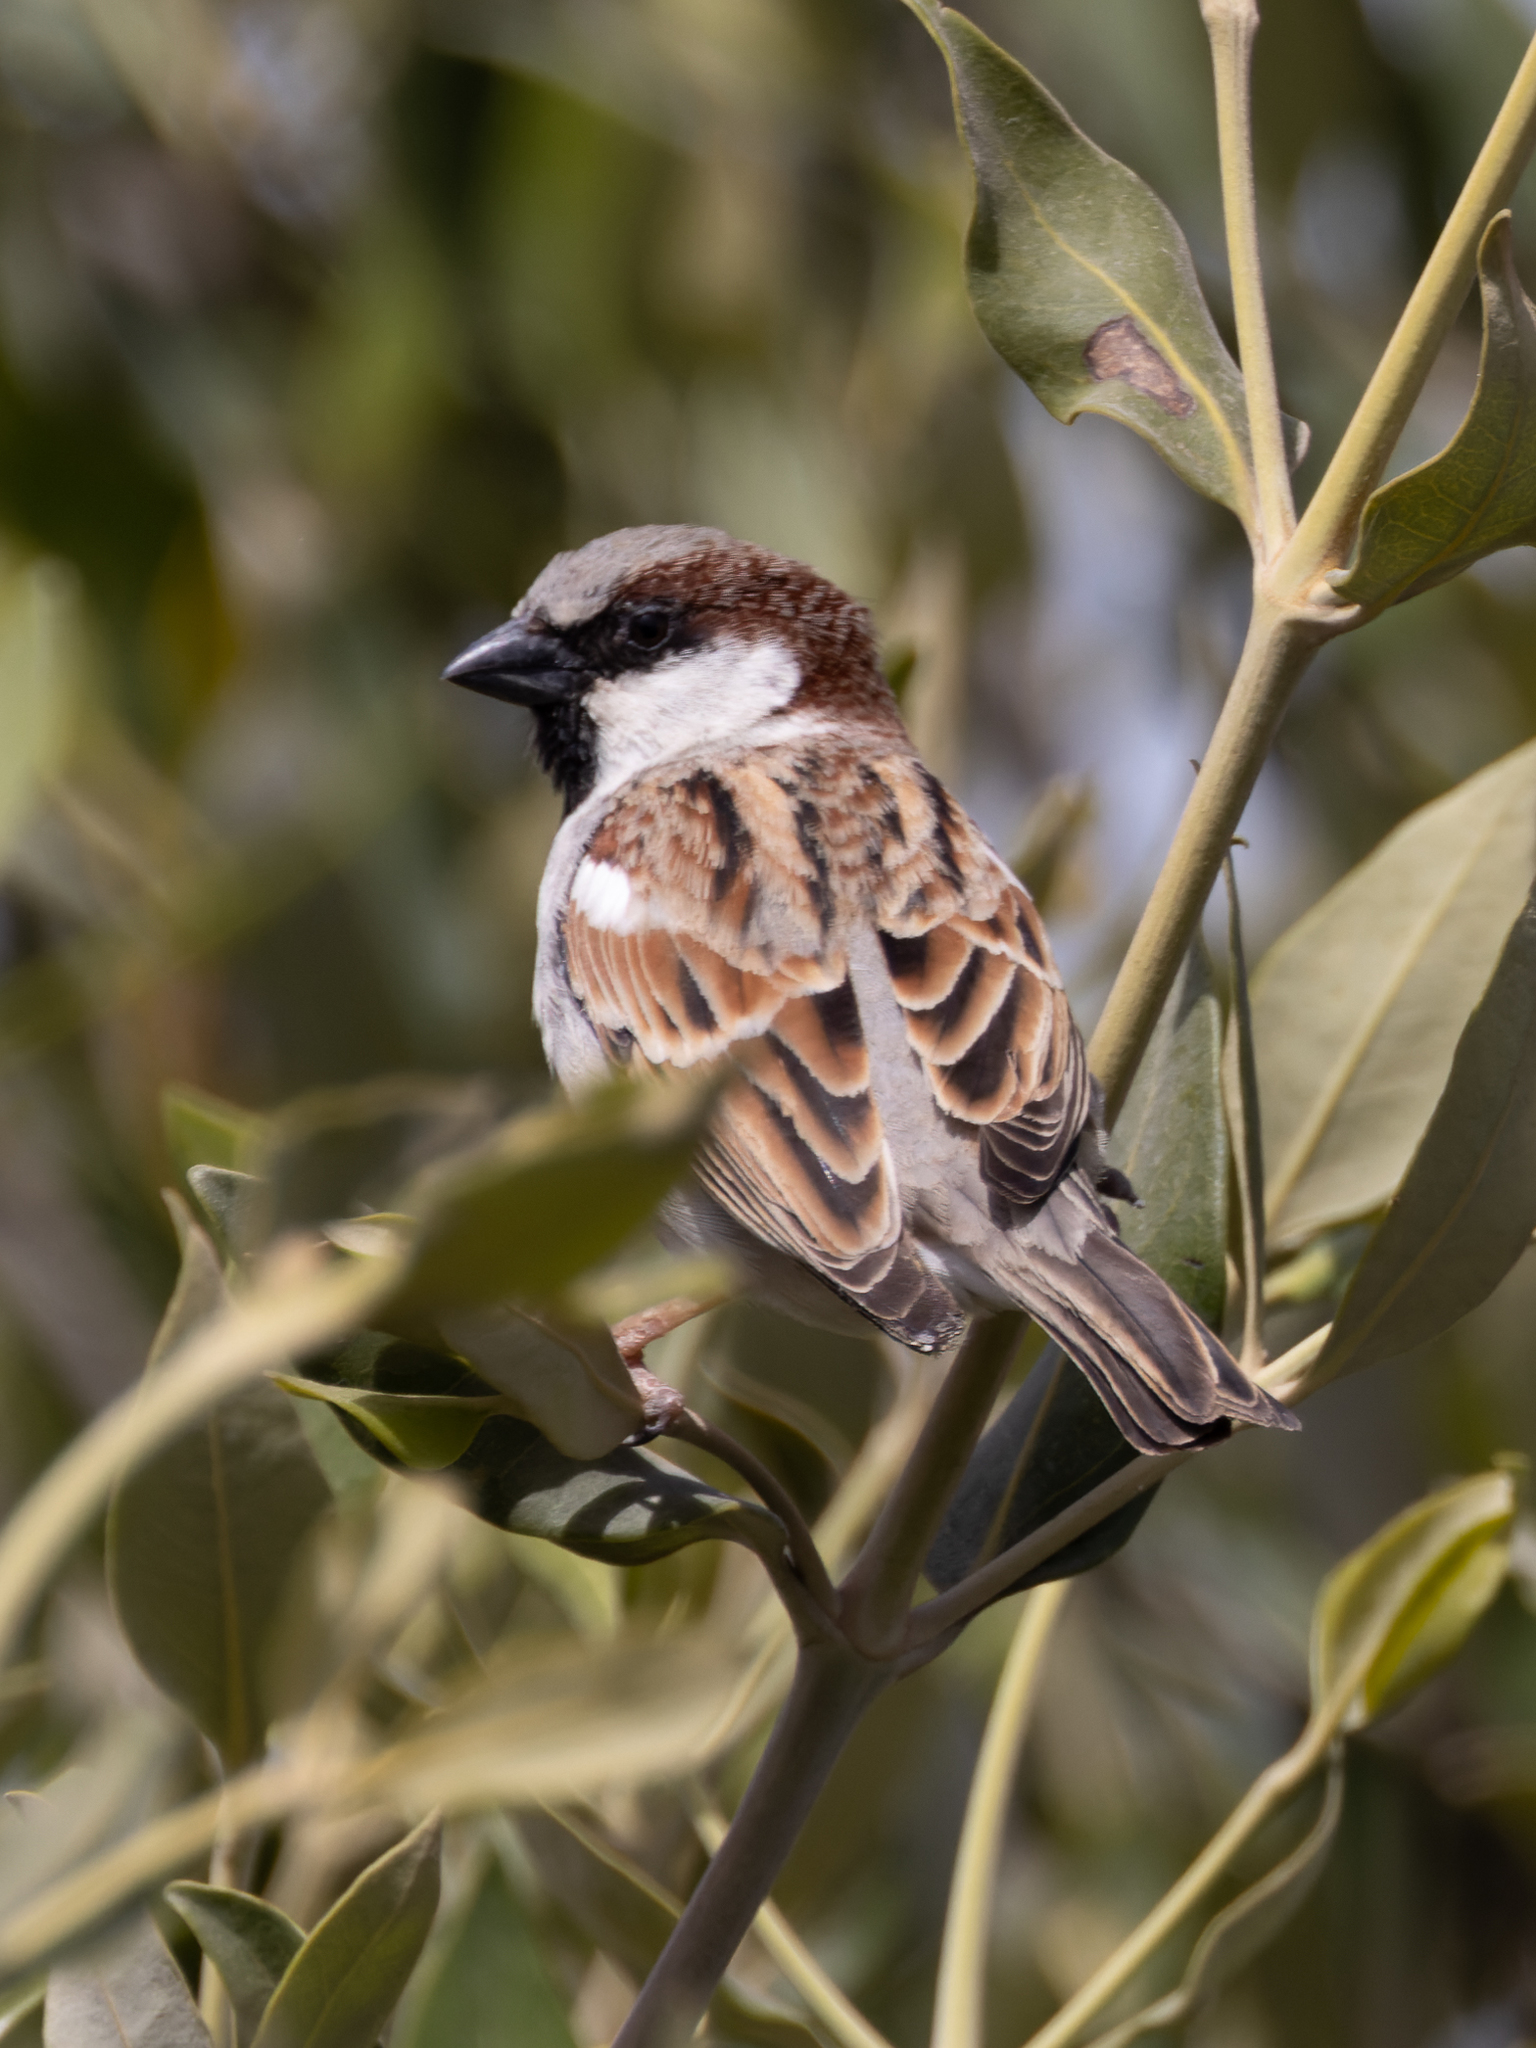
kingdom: Animalia
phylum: Chordata
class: Aves
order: Passeriformes
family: Passeridae
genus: Passer
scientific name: Passer domesticus
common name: House sparrow
